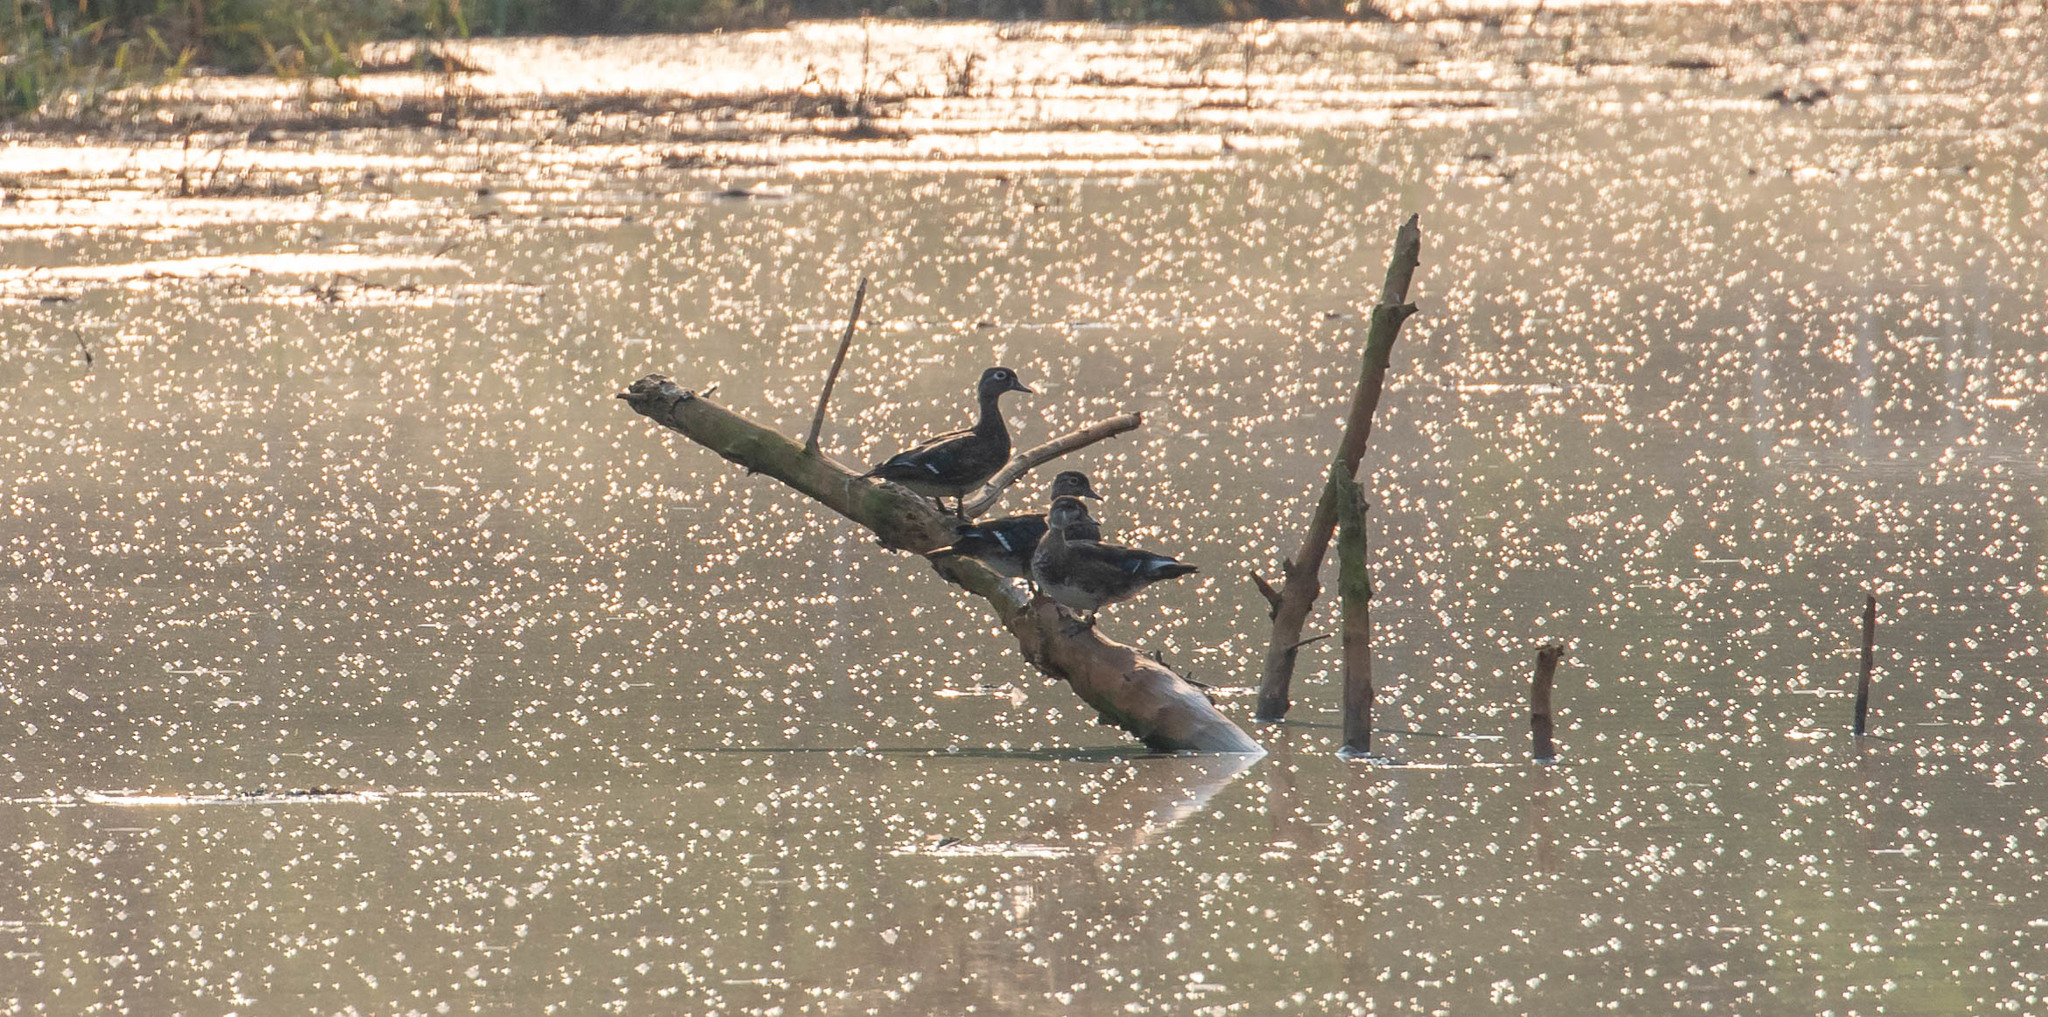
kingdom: Animalia
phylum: Chordata
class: Aves
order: Anseriformes
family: Anatidae
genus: Aix
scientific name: Aix sponsa
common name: Wood duck
